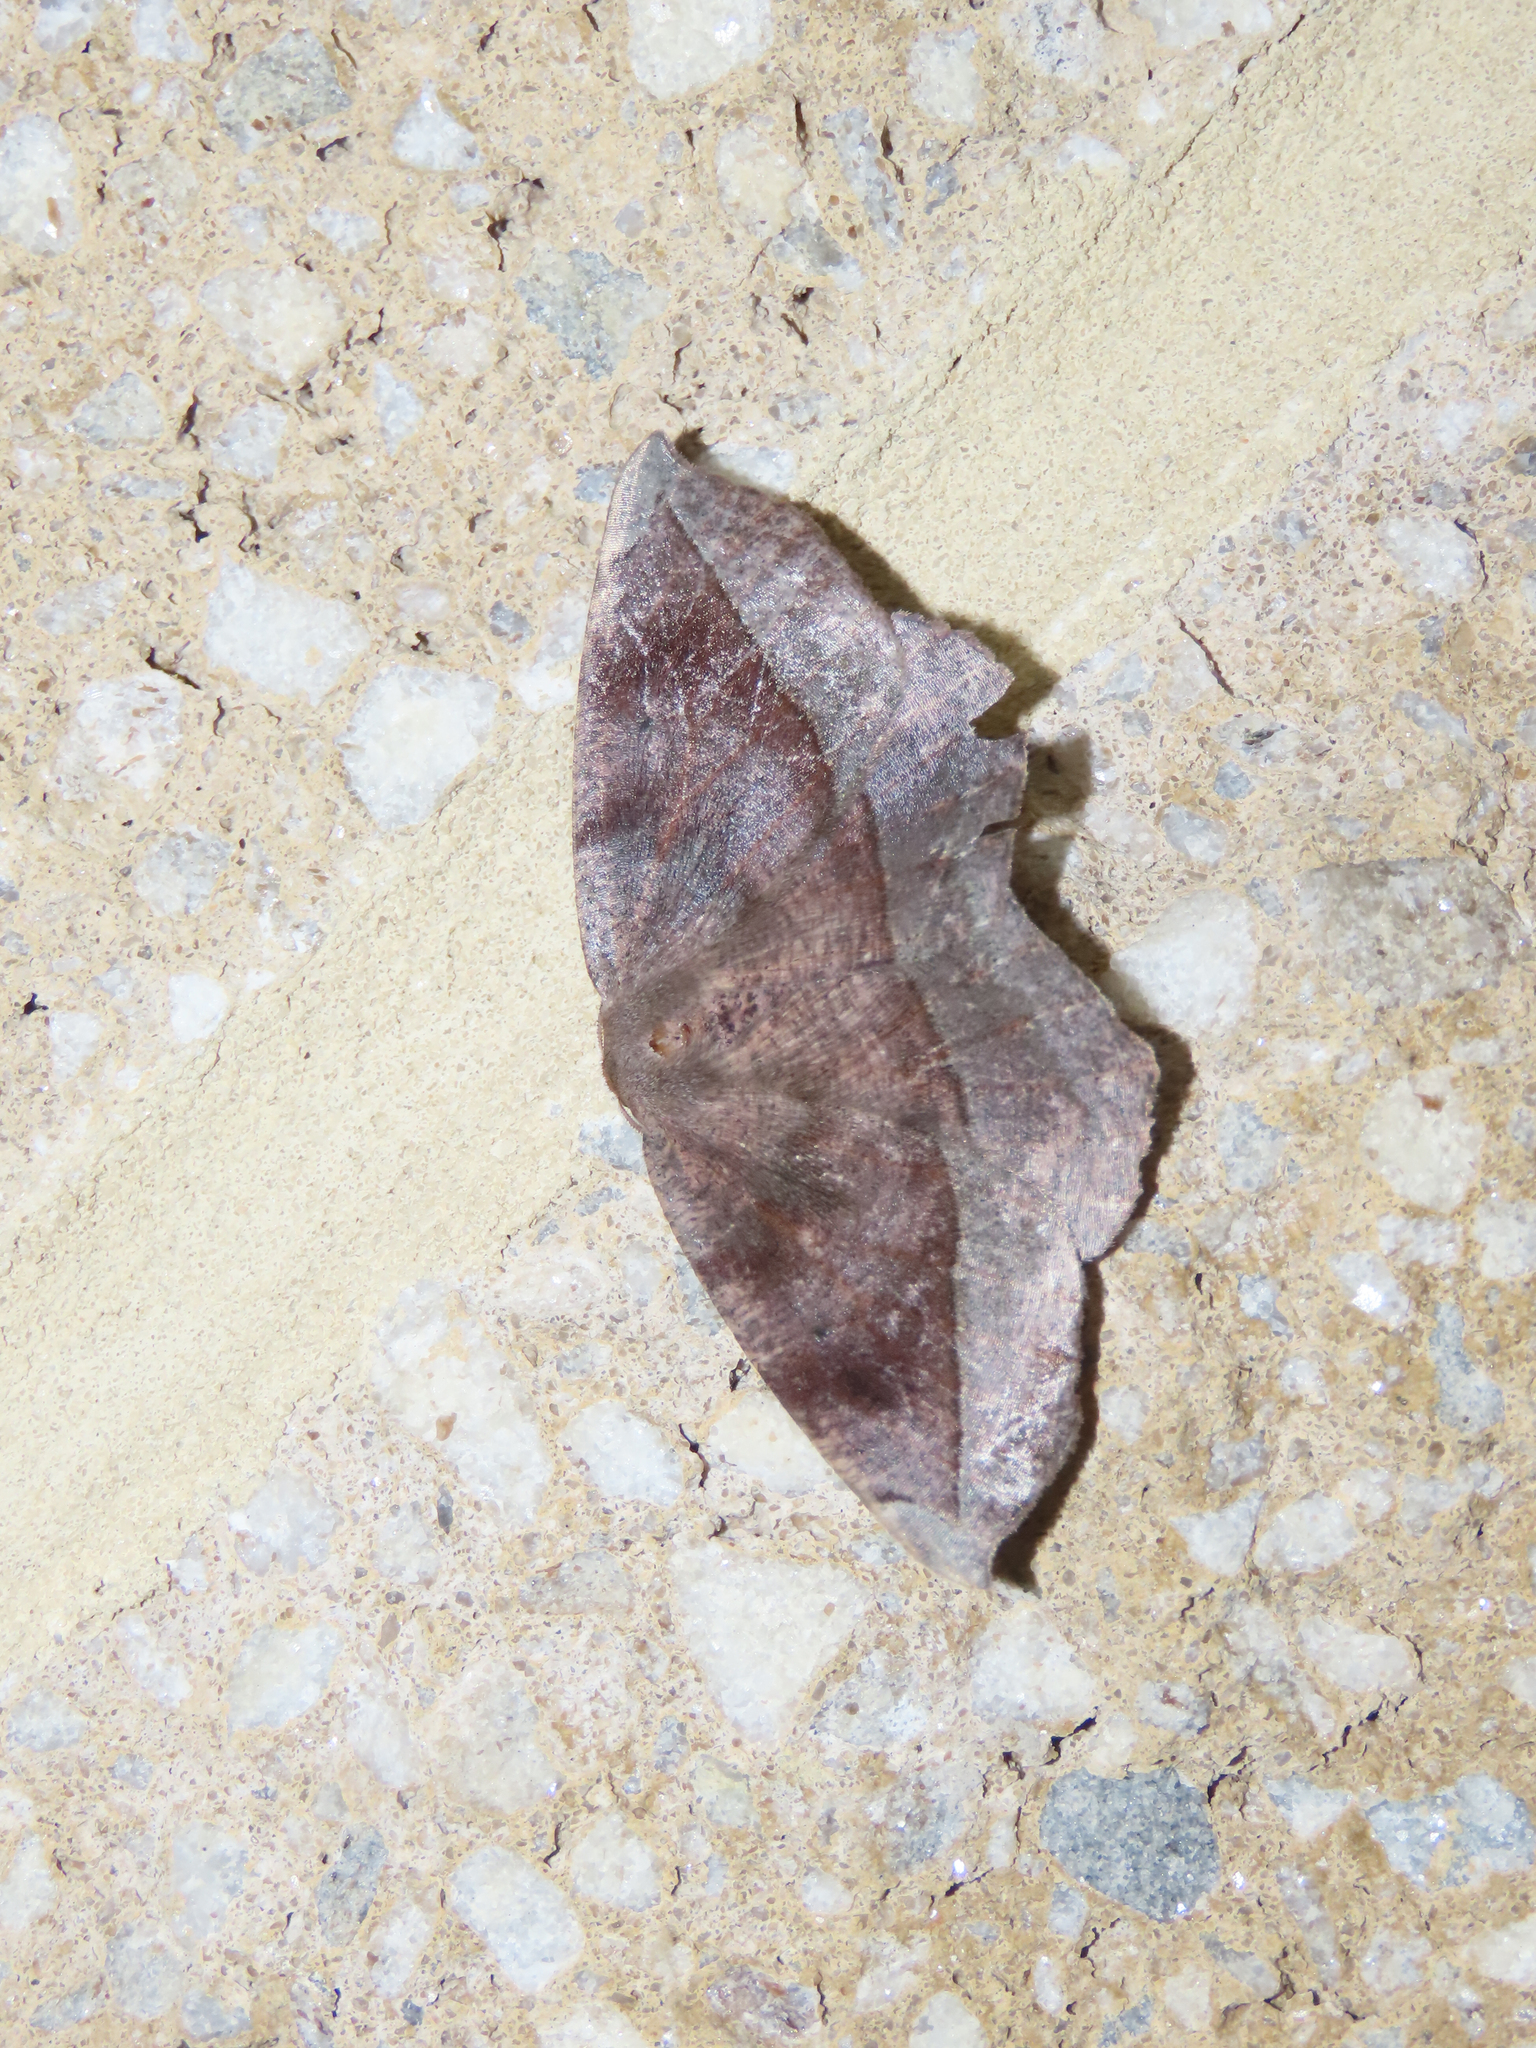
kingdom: Animalia
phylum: Arthropoda
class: Insecta
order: Lepidoptera
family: Geometridae
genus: Eutrapela
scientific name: Eutrapela clemataria
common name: Curved-toothed geometer
